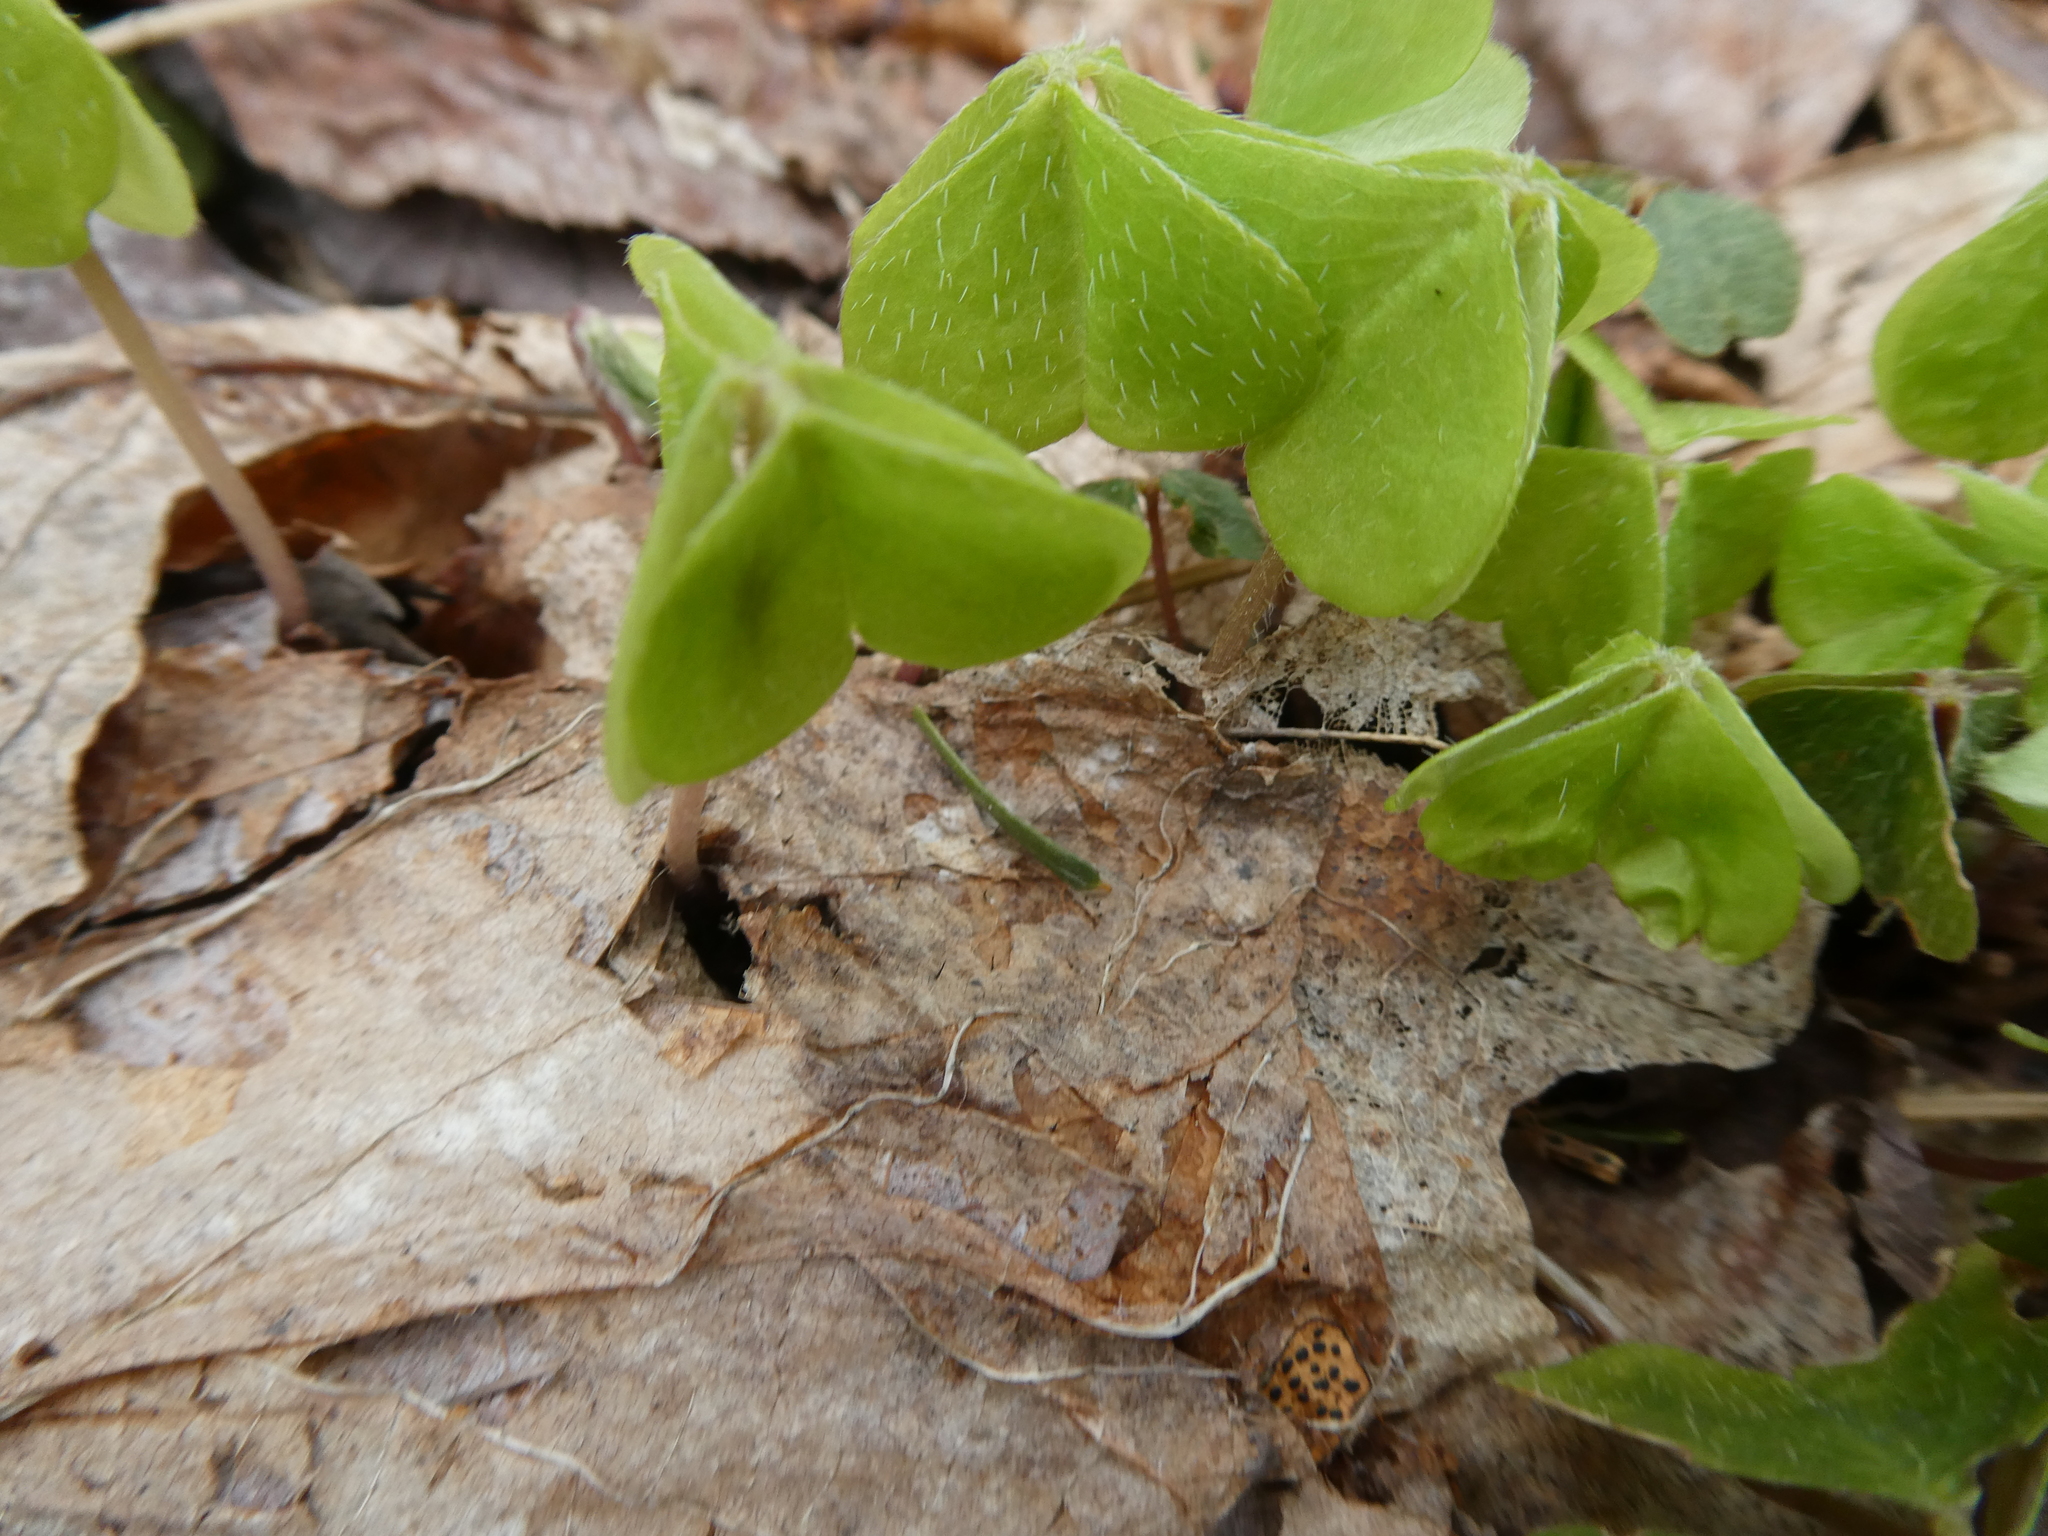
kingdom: Plantae
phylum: Tracheophyta
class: Magnoliopsida
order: Oxalidales
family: Oxalidaceae
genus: Oxalis
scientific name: Oxalis montana
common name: American wood-sorrel
